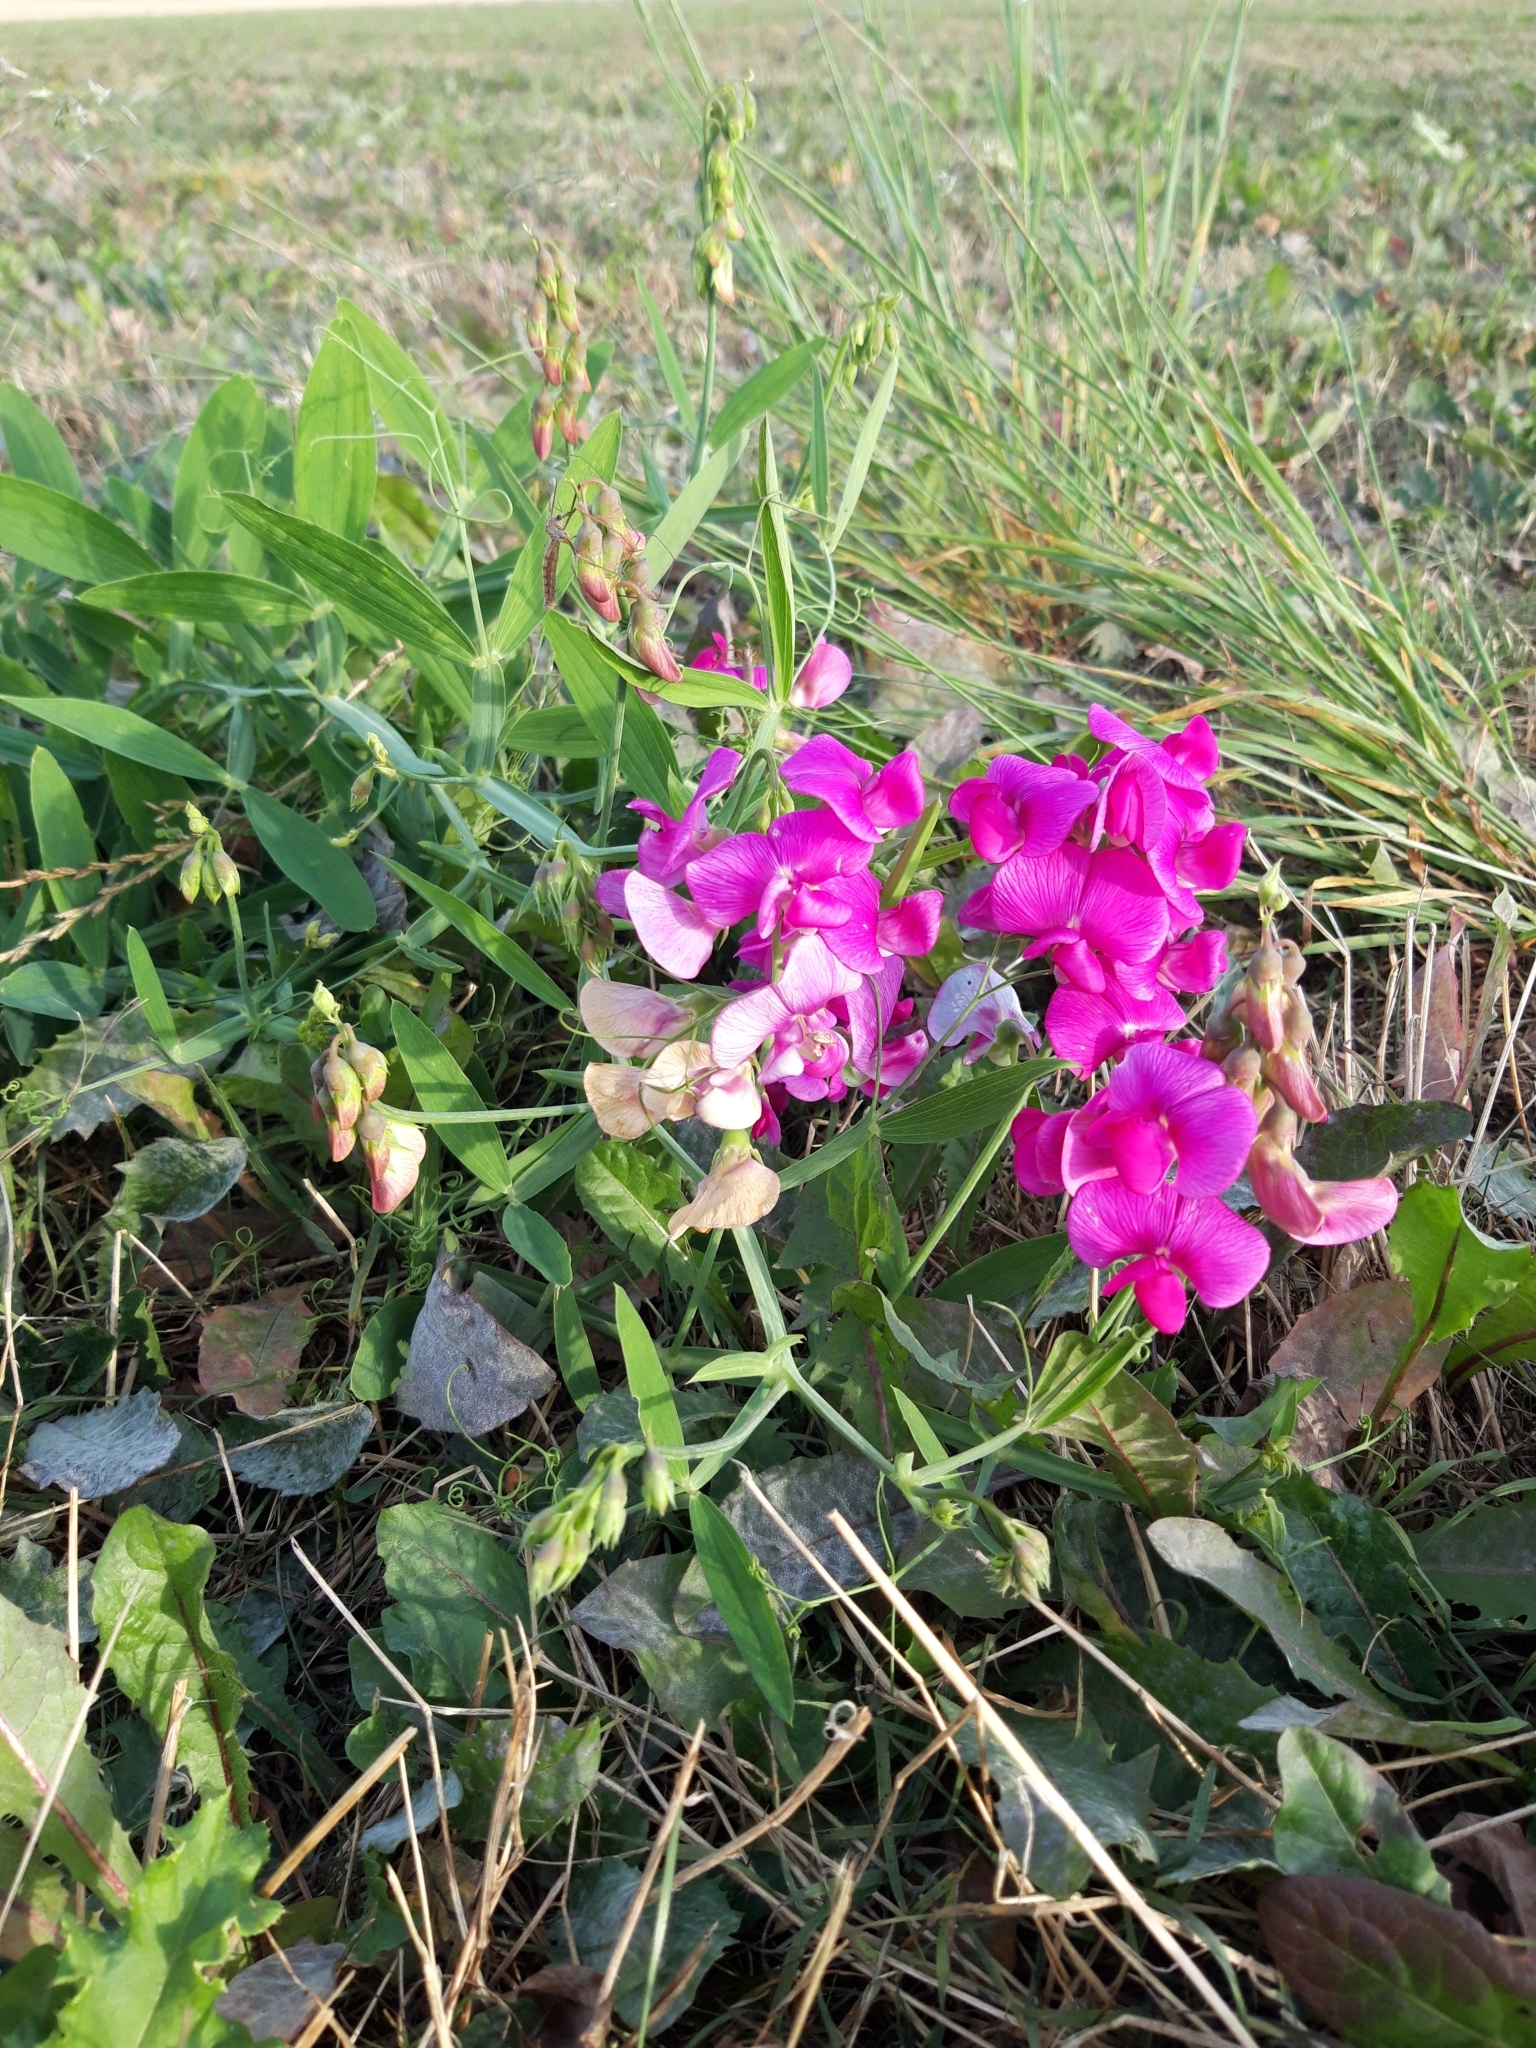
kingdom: Plantae
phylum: Tracheophyta
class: Magnoliopsida
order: Fabales
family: Fabaceae
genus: Lathyrus
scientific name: Lathyrus latifolius
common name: Perennial pea
